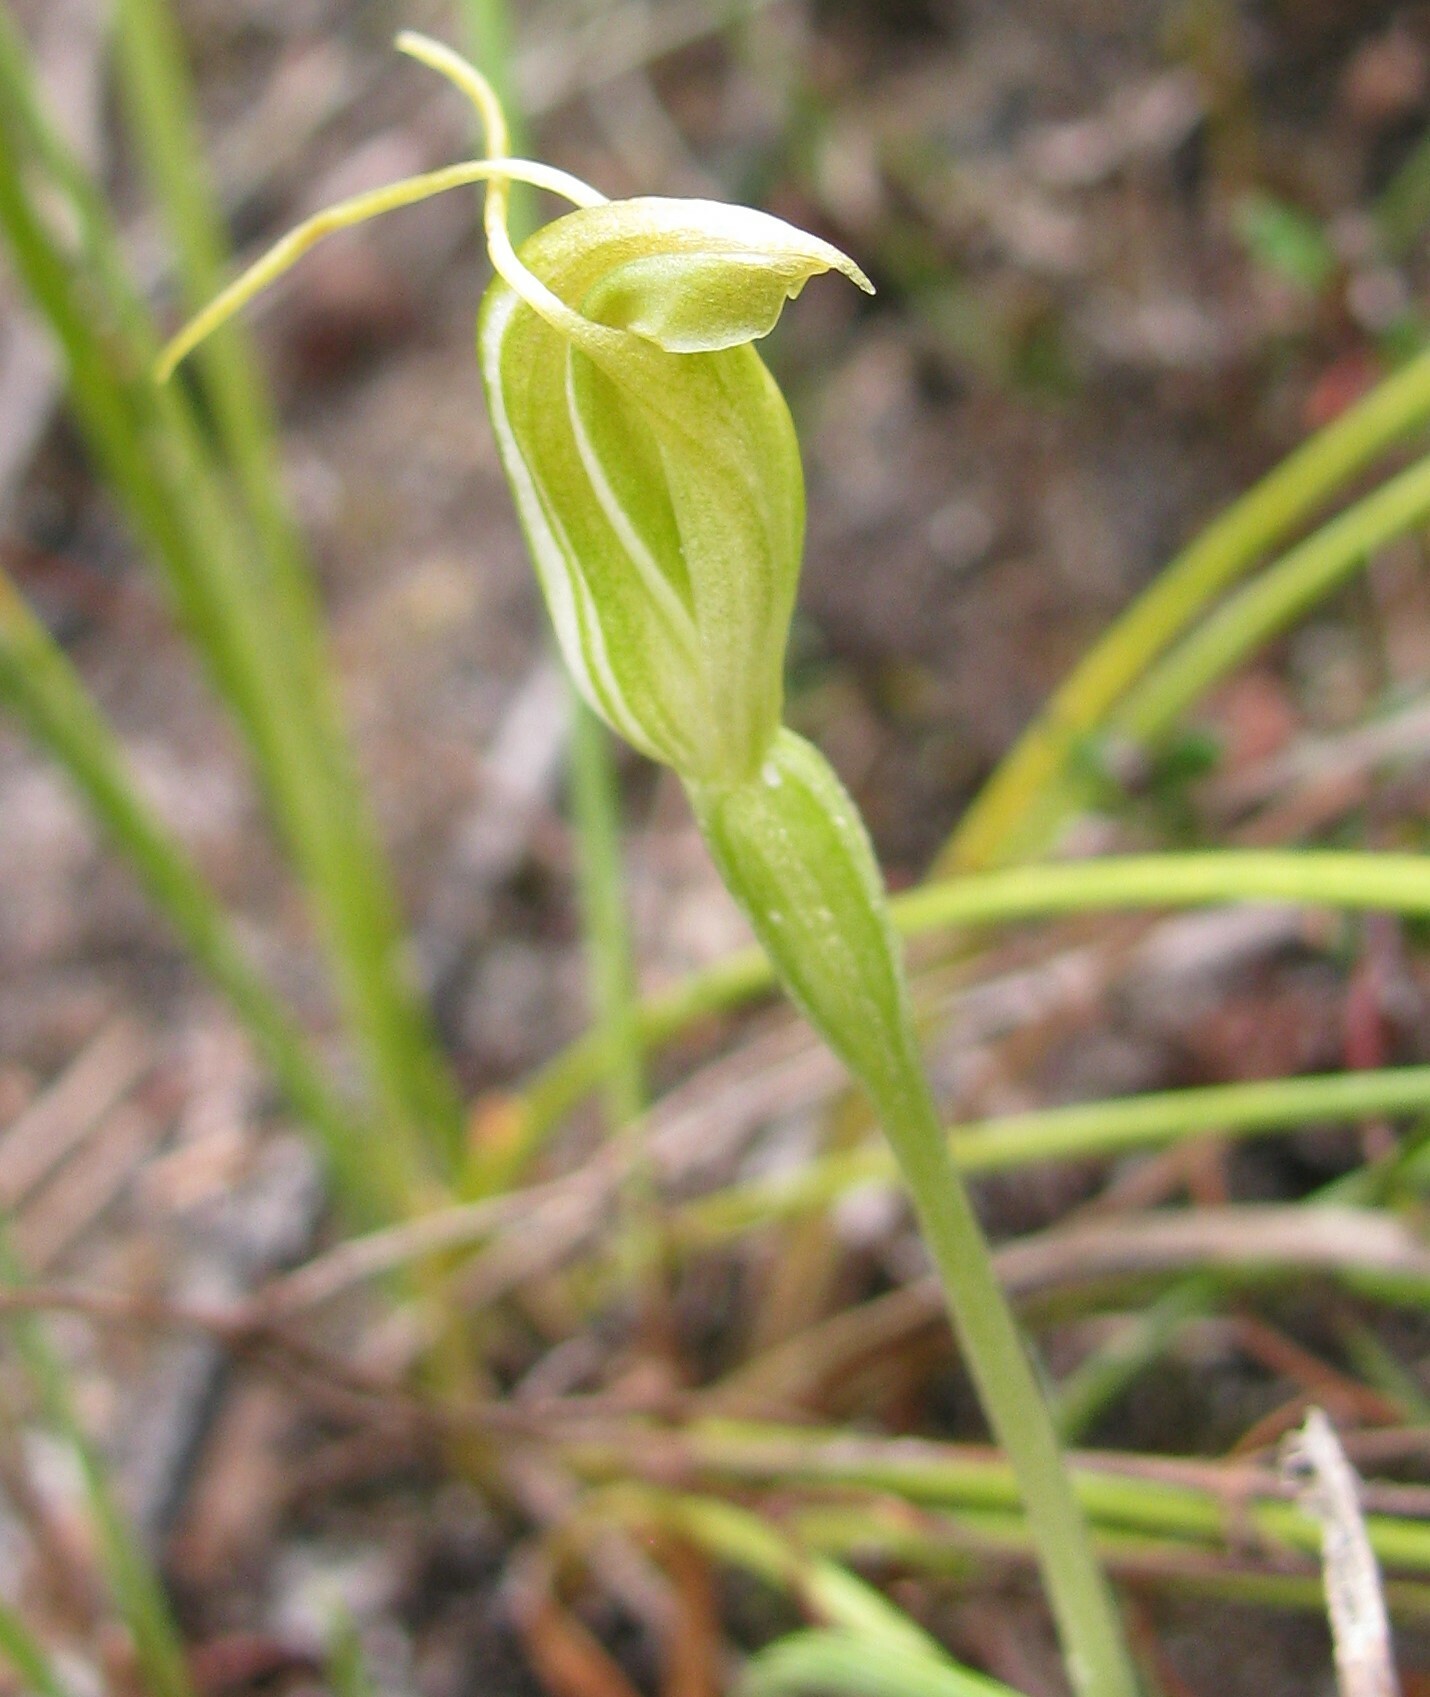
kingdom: Plantae
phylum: Tracheophyta
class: Liliopsida
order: Asparagales
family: Orchidaceae
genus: Pterostylis
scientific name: Pterostylis nana
